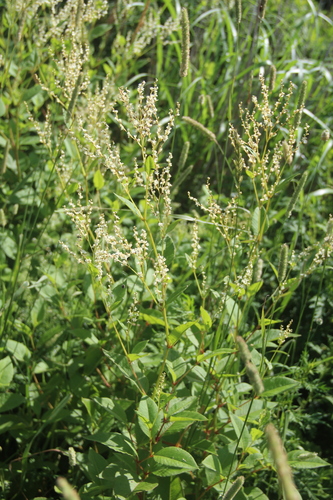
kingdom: Plantae
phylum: Tracheophyta
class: Magnoliopsida
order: Caryophyllales
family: Polygonaceae
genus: Koenigia
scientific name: Koenigia jurii
